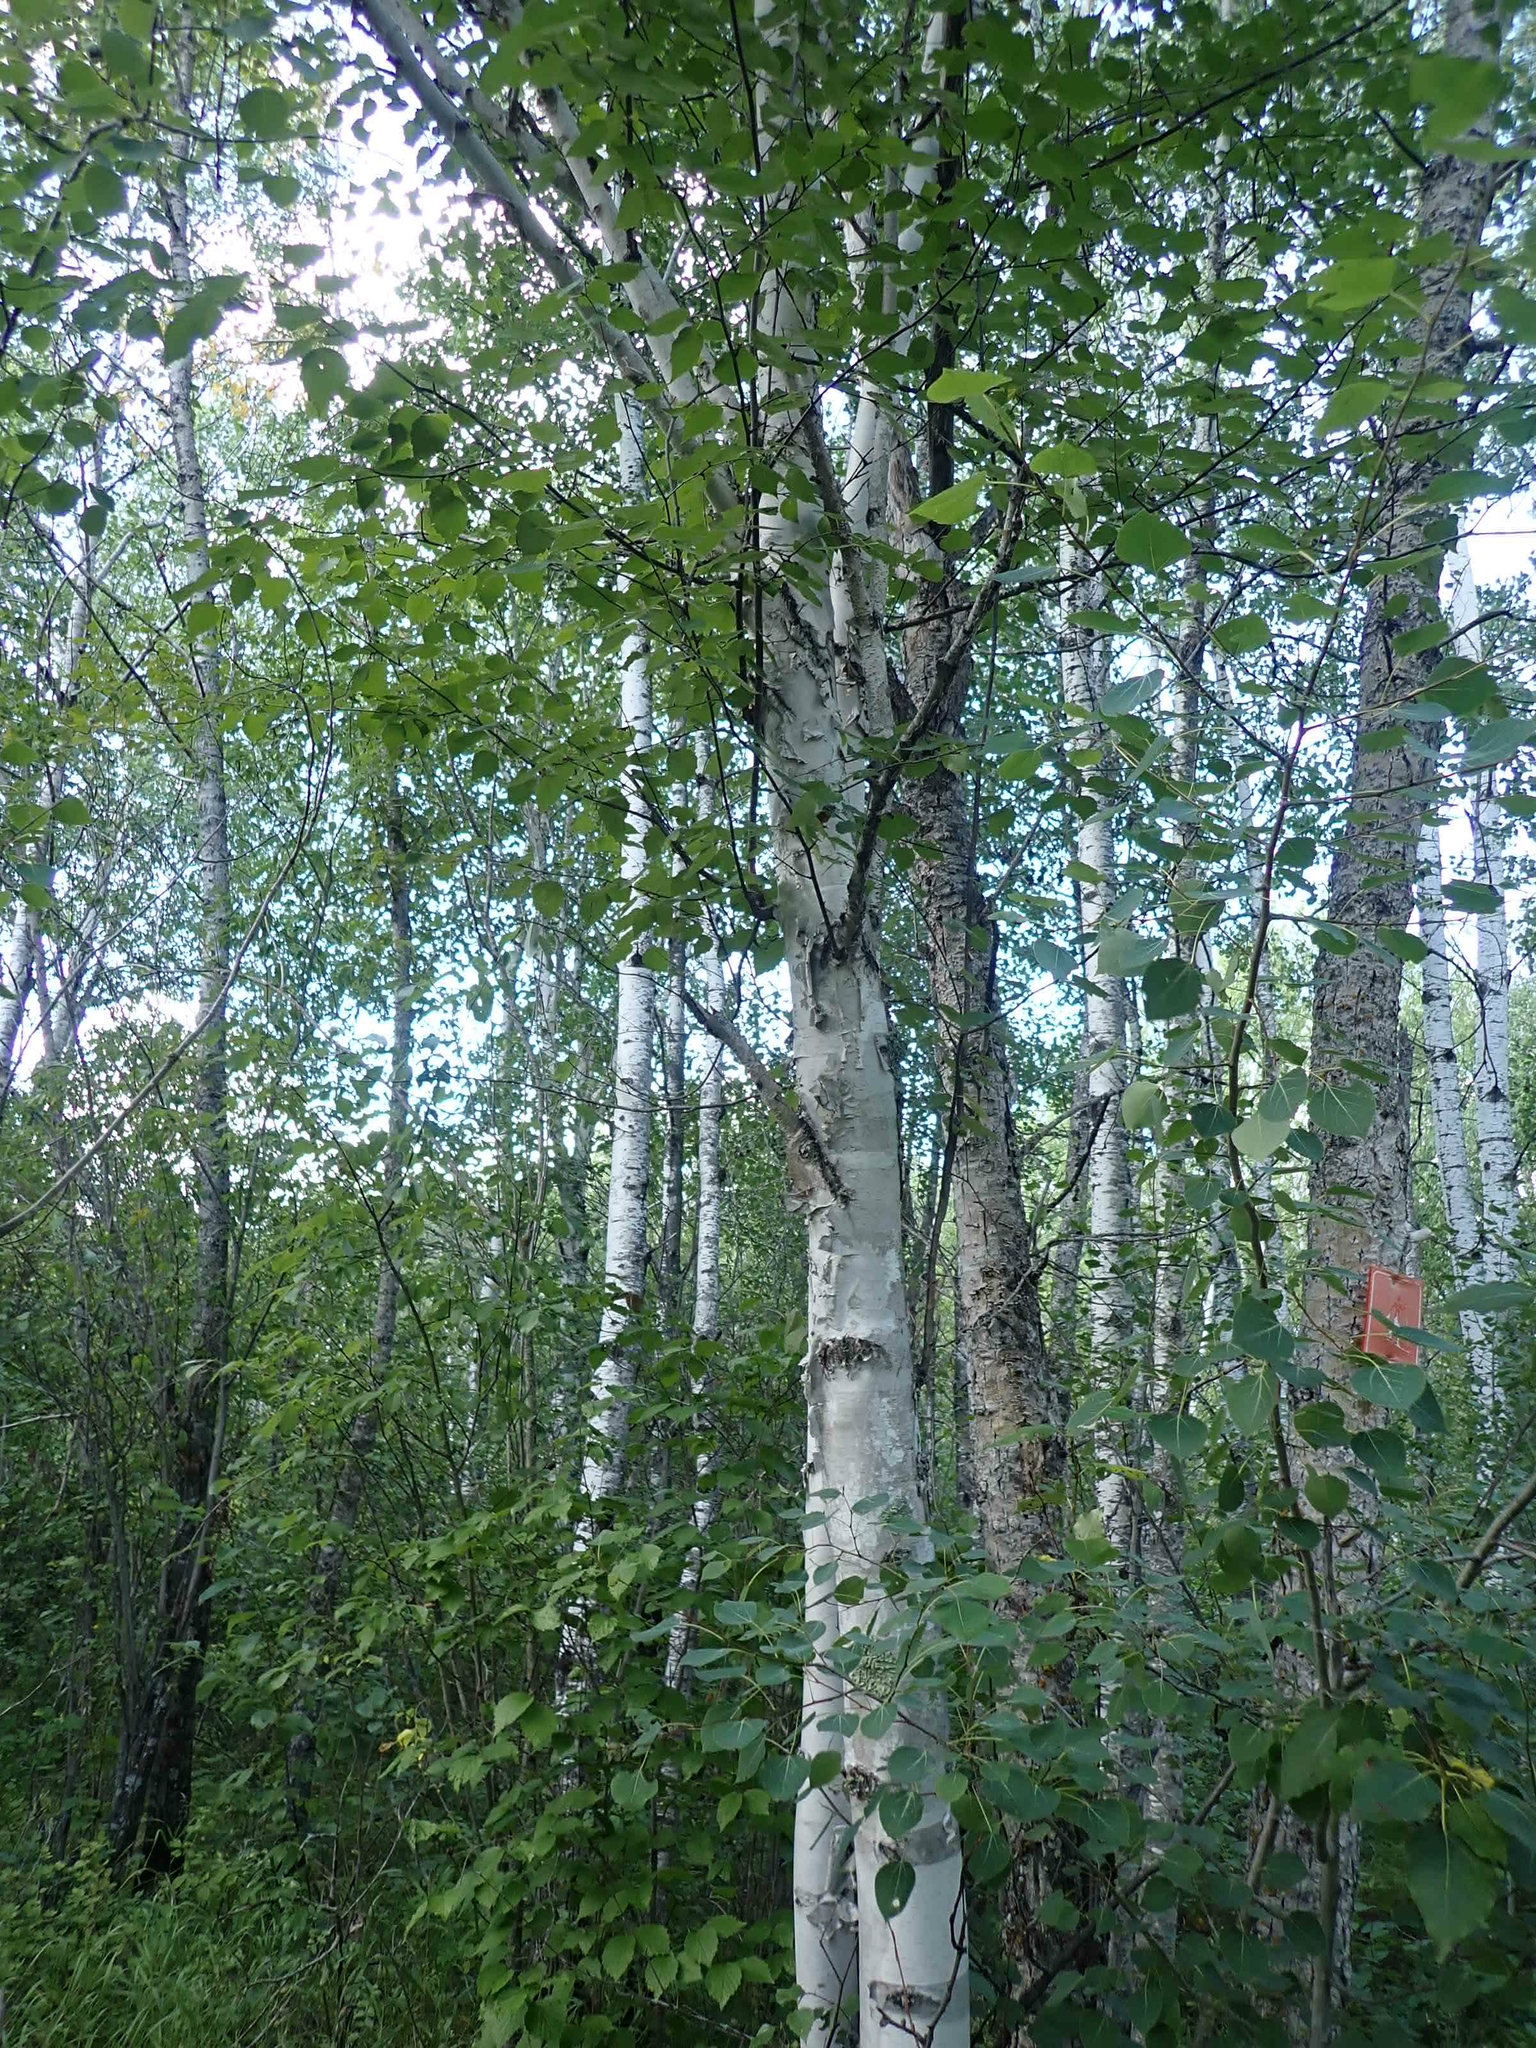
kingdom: Plantae
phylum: Tracheophyta
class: Magnoliopsida
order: Fagales
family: Betulaceae
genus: Betula
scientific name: Betula papyrifera
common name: Paper birch
